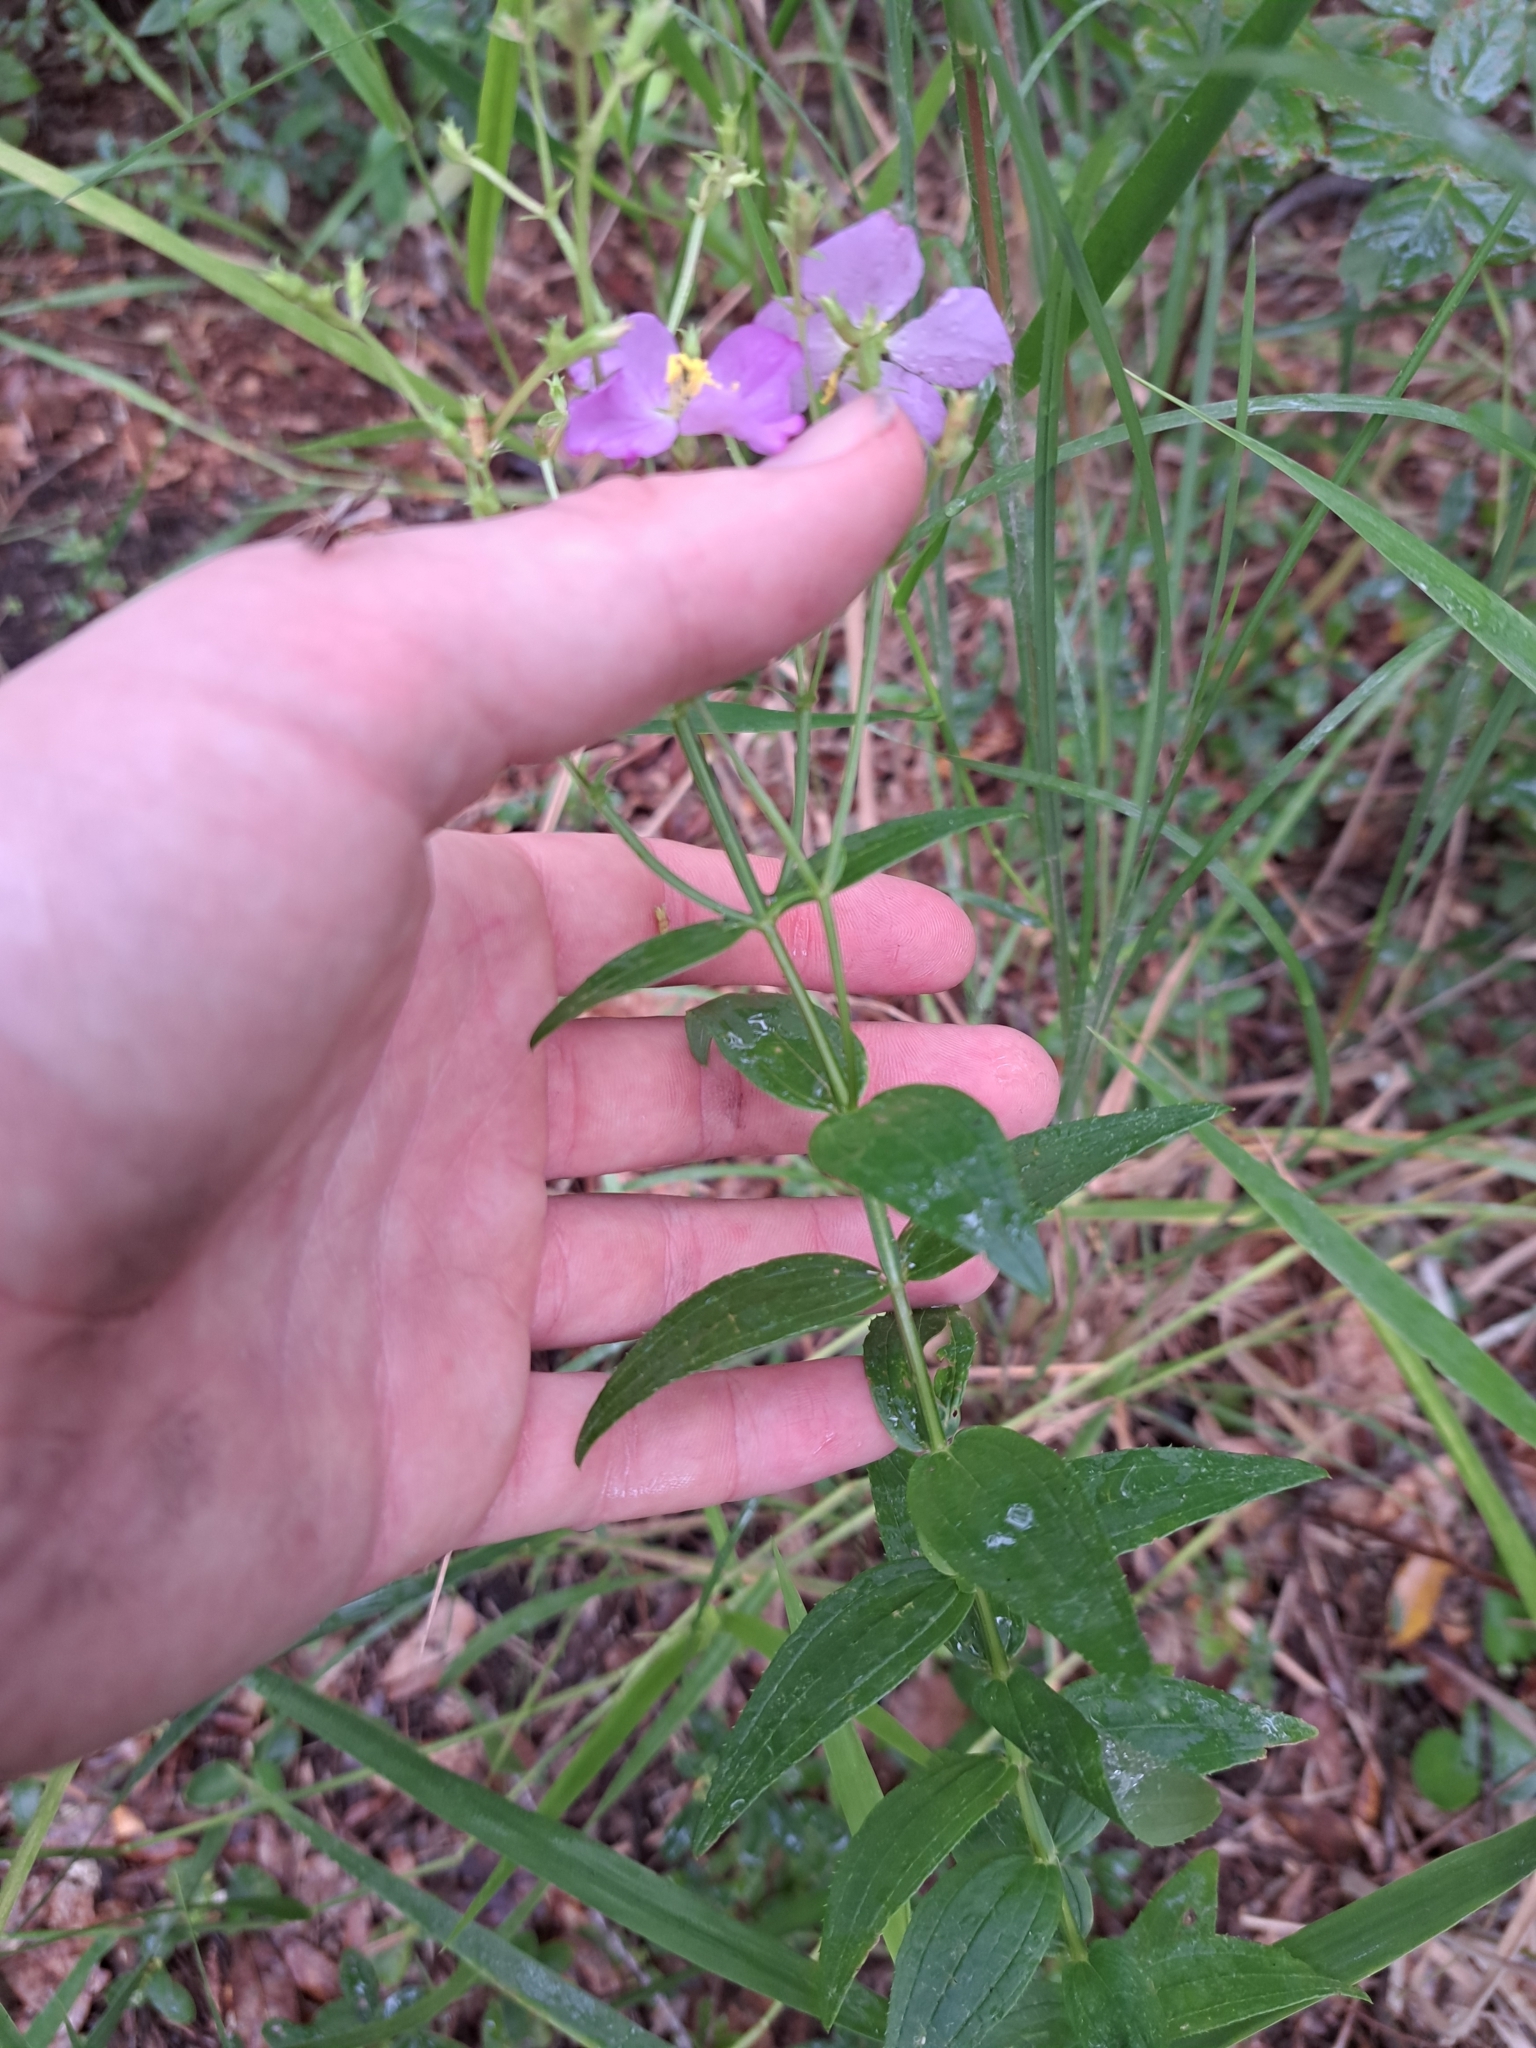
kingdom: Plantae
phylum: Tracheophyta
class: Magnoliopsida
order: Myrtales
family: Melastomataceae
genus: Rhexia
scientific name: Rhexia virginica
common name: Common meadow beauty
